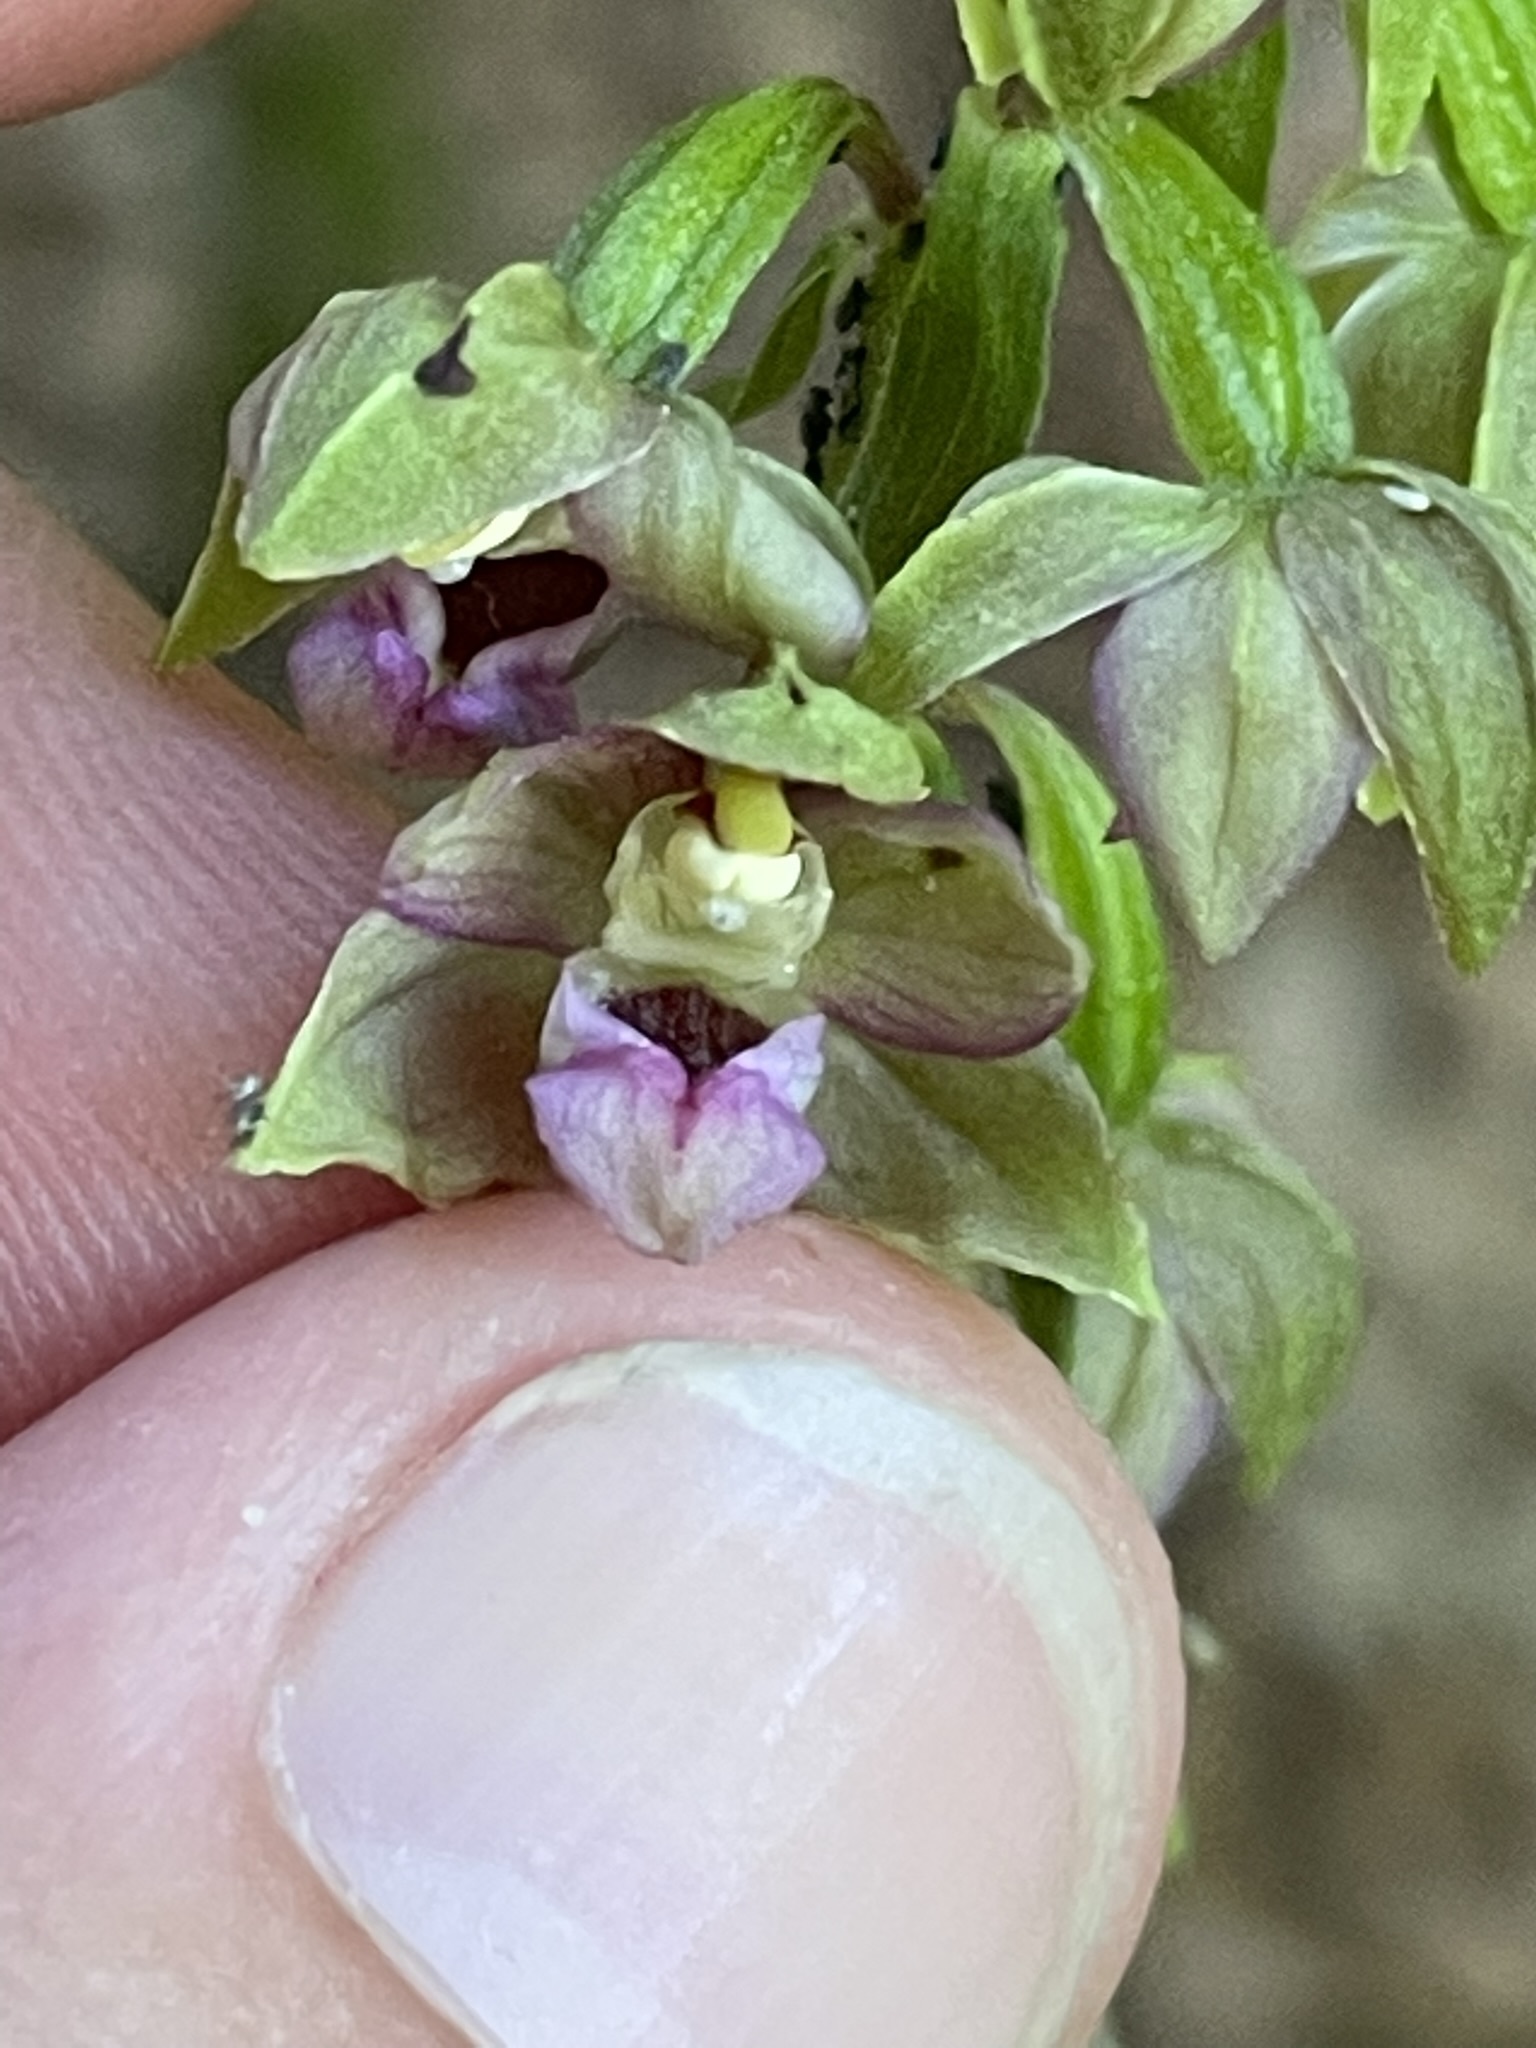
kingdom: Plantae
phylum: Tracheophyta
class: Liliopsida
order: Asparagales
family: Orchidaceae
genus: Epipactis
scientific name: Epipactis helleborine
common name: Broad-leaved helleborine
